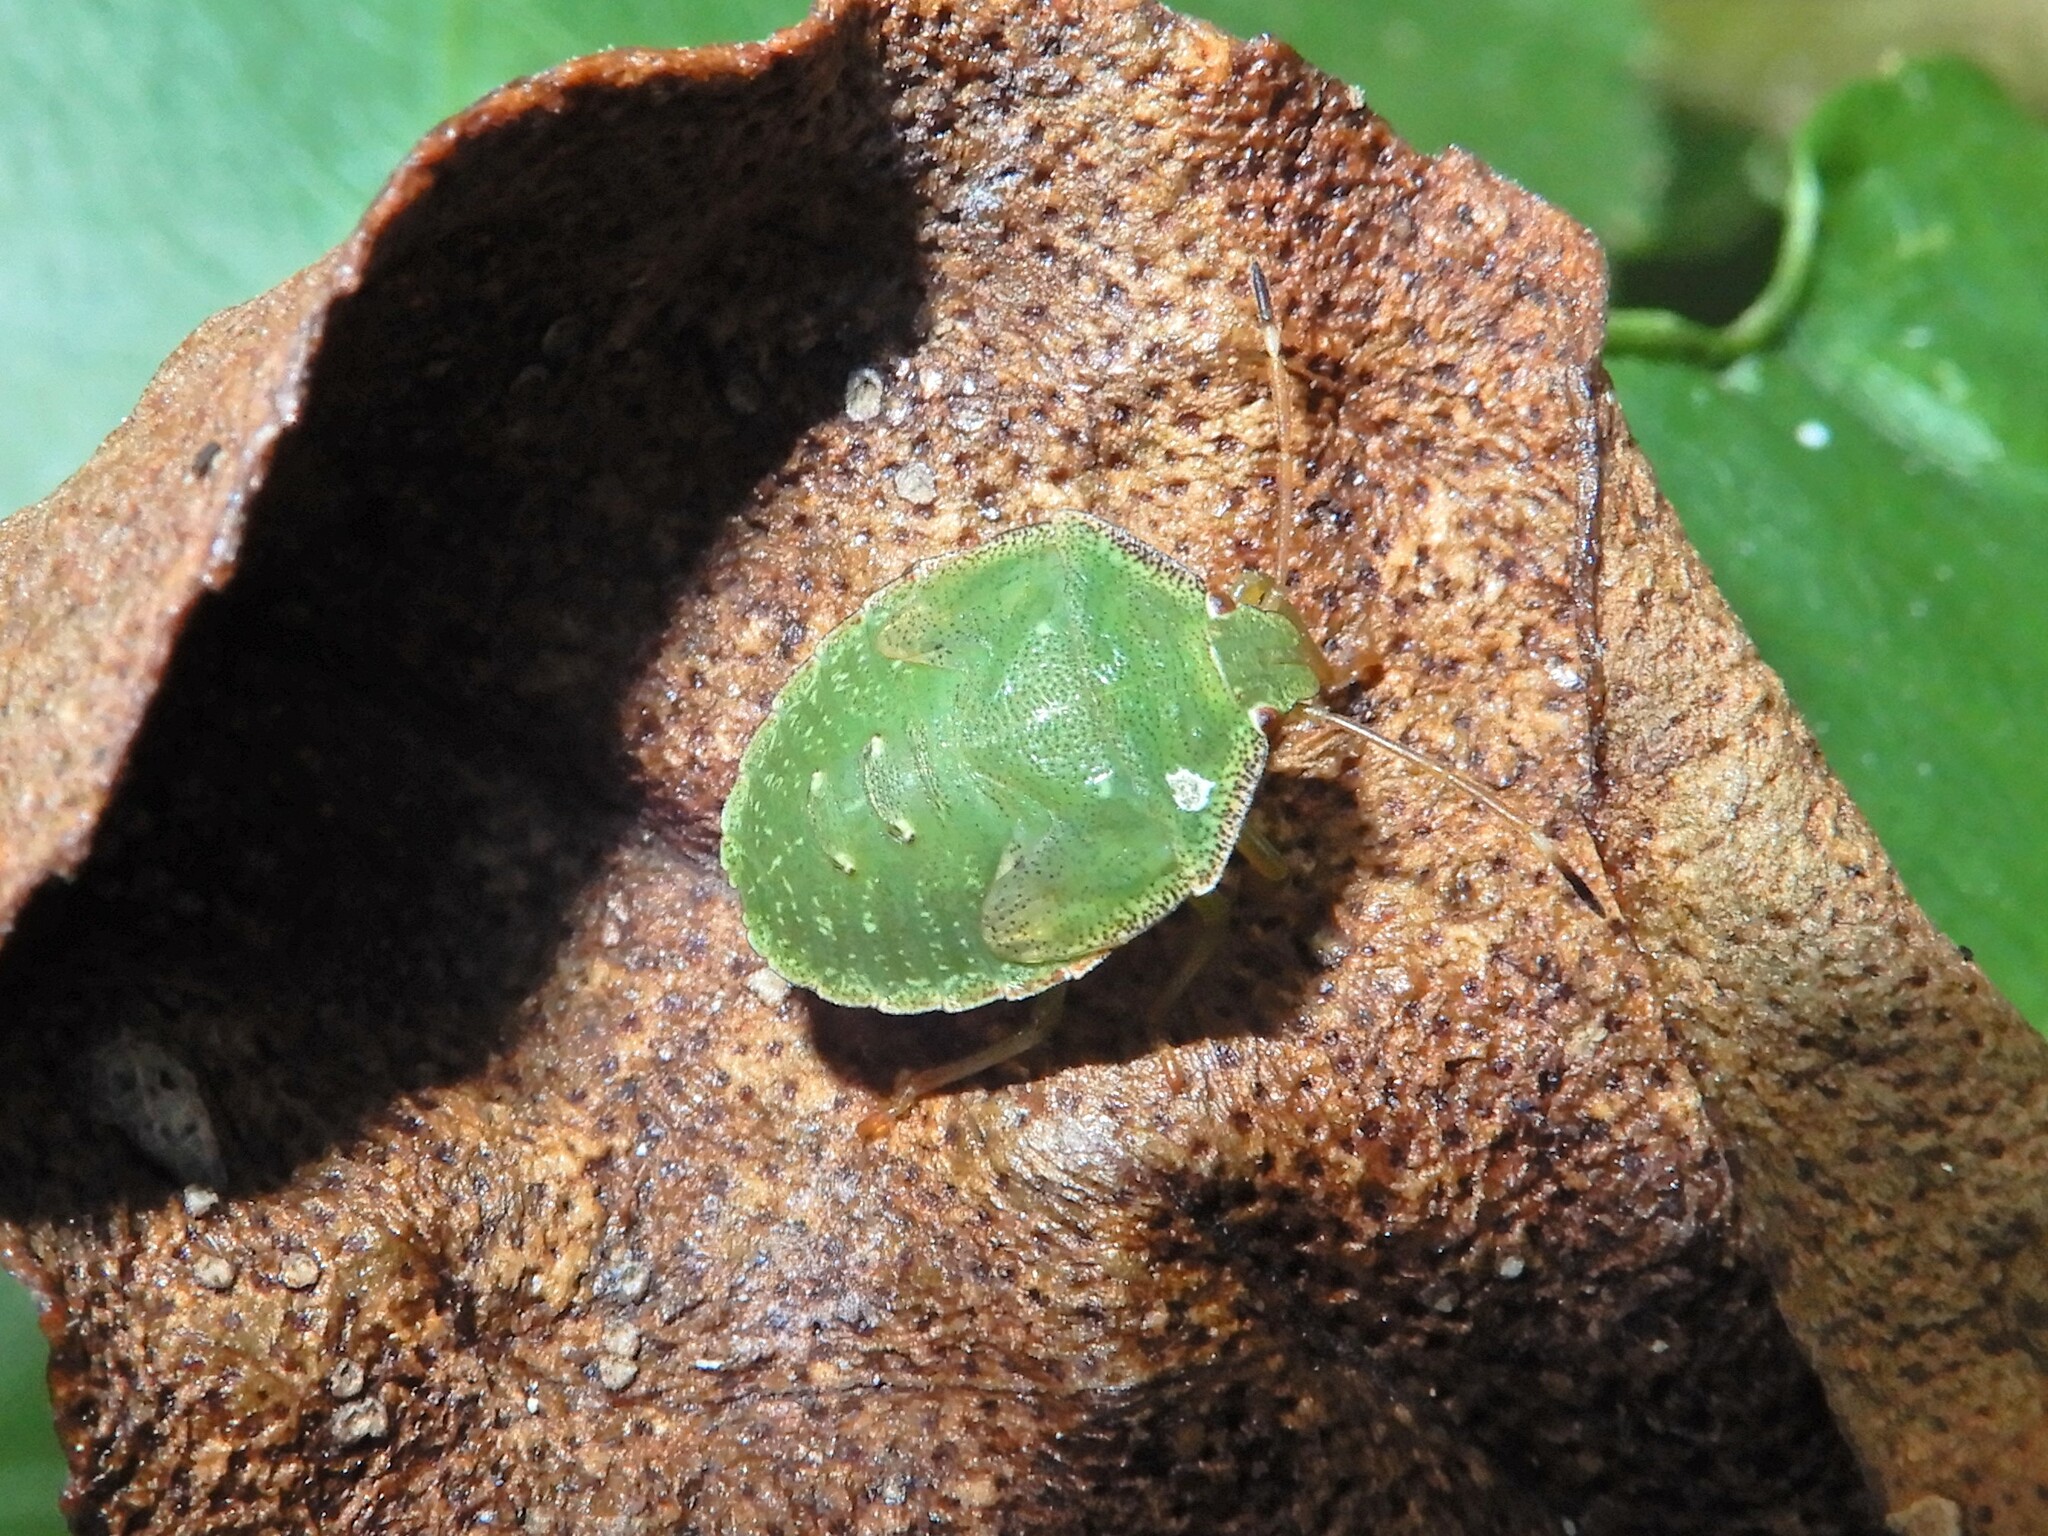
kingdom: Animalia
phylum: Arthropoda
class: Insecta
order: Hemiptera
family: Pentatomidae
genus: Cuspicona
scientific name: Cuspicona simplex
